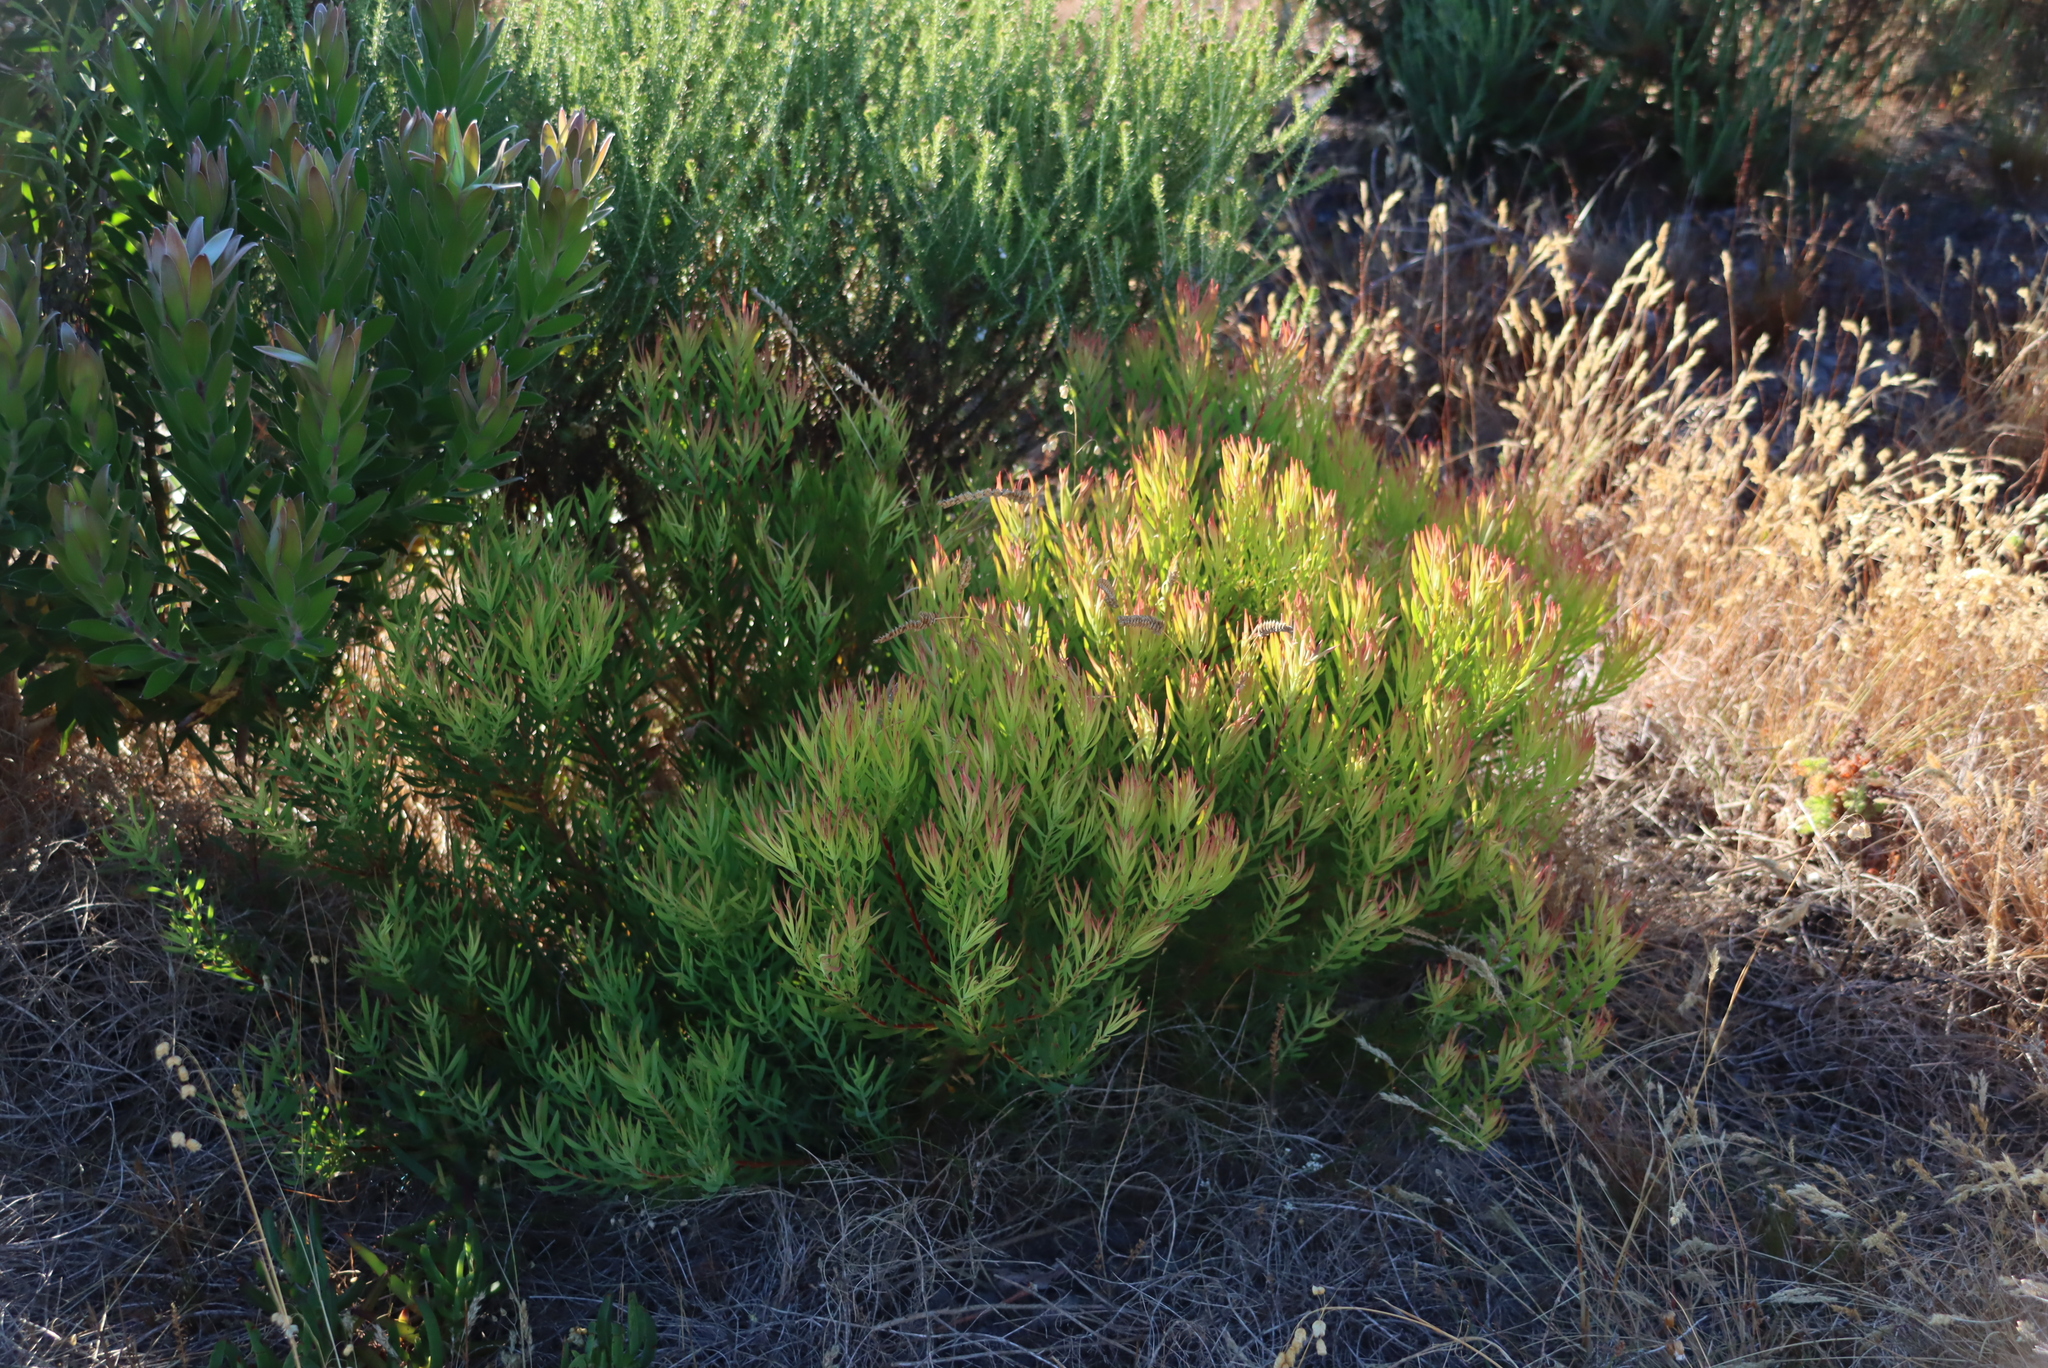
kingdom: Plantae
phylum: Tracheophyta
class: Magnoliopsida
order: Proteales
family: Proteaceae
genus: Leucadendron
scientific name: Leucadendron salignum
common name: Common sunshine conebush
